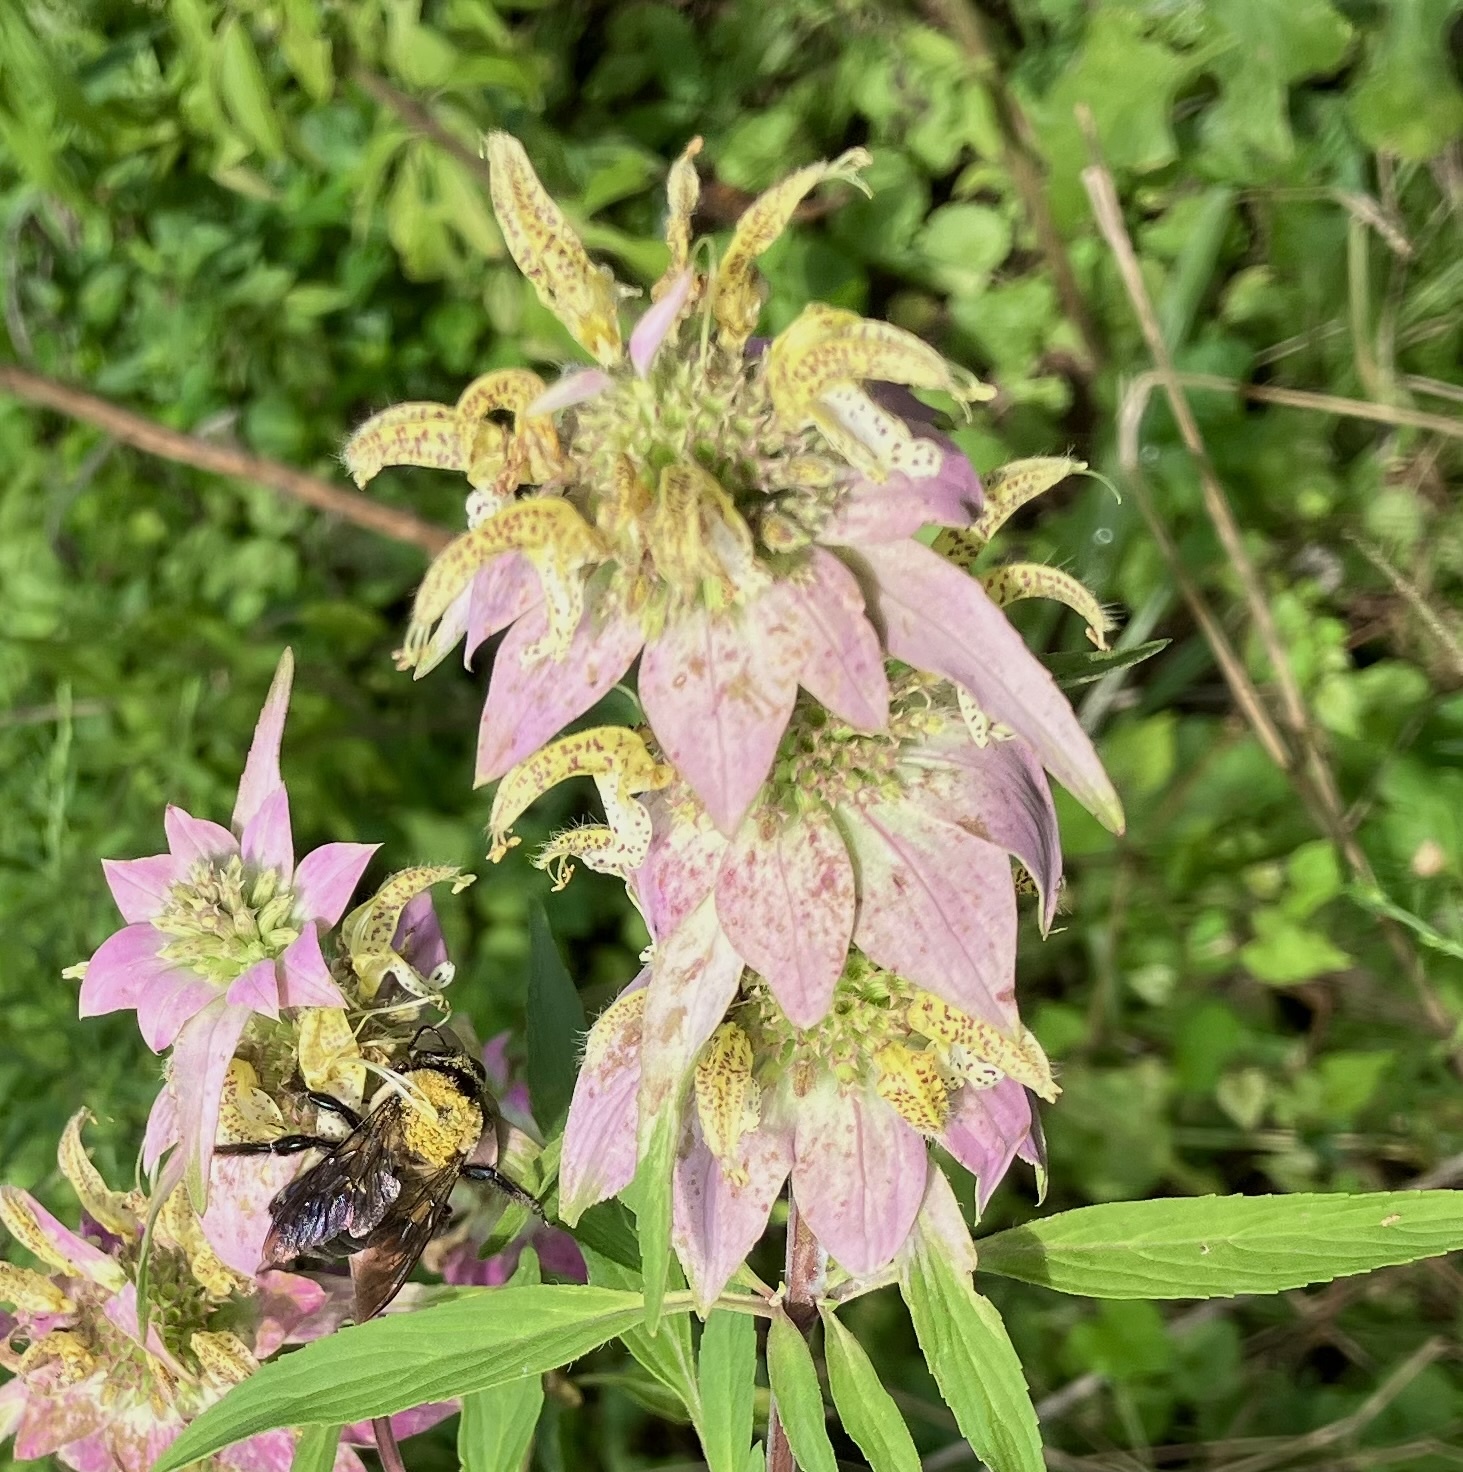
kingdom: Plantae
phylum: Tracheophyta
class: Magnoliopsida
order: Lamiales
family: Lamiaceae
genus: Monarda
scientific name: Monarda punctata
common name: Dotted monarda
